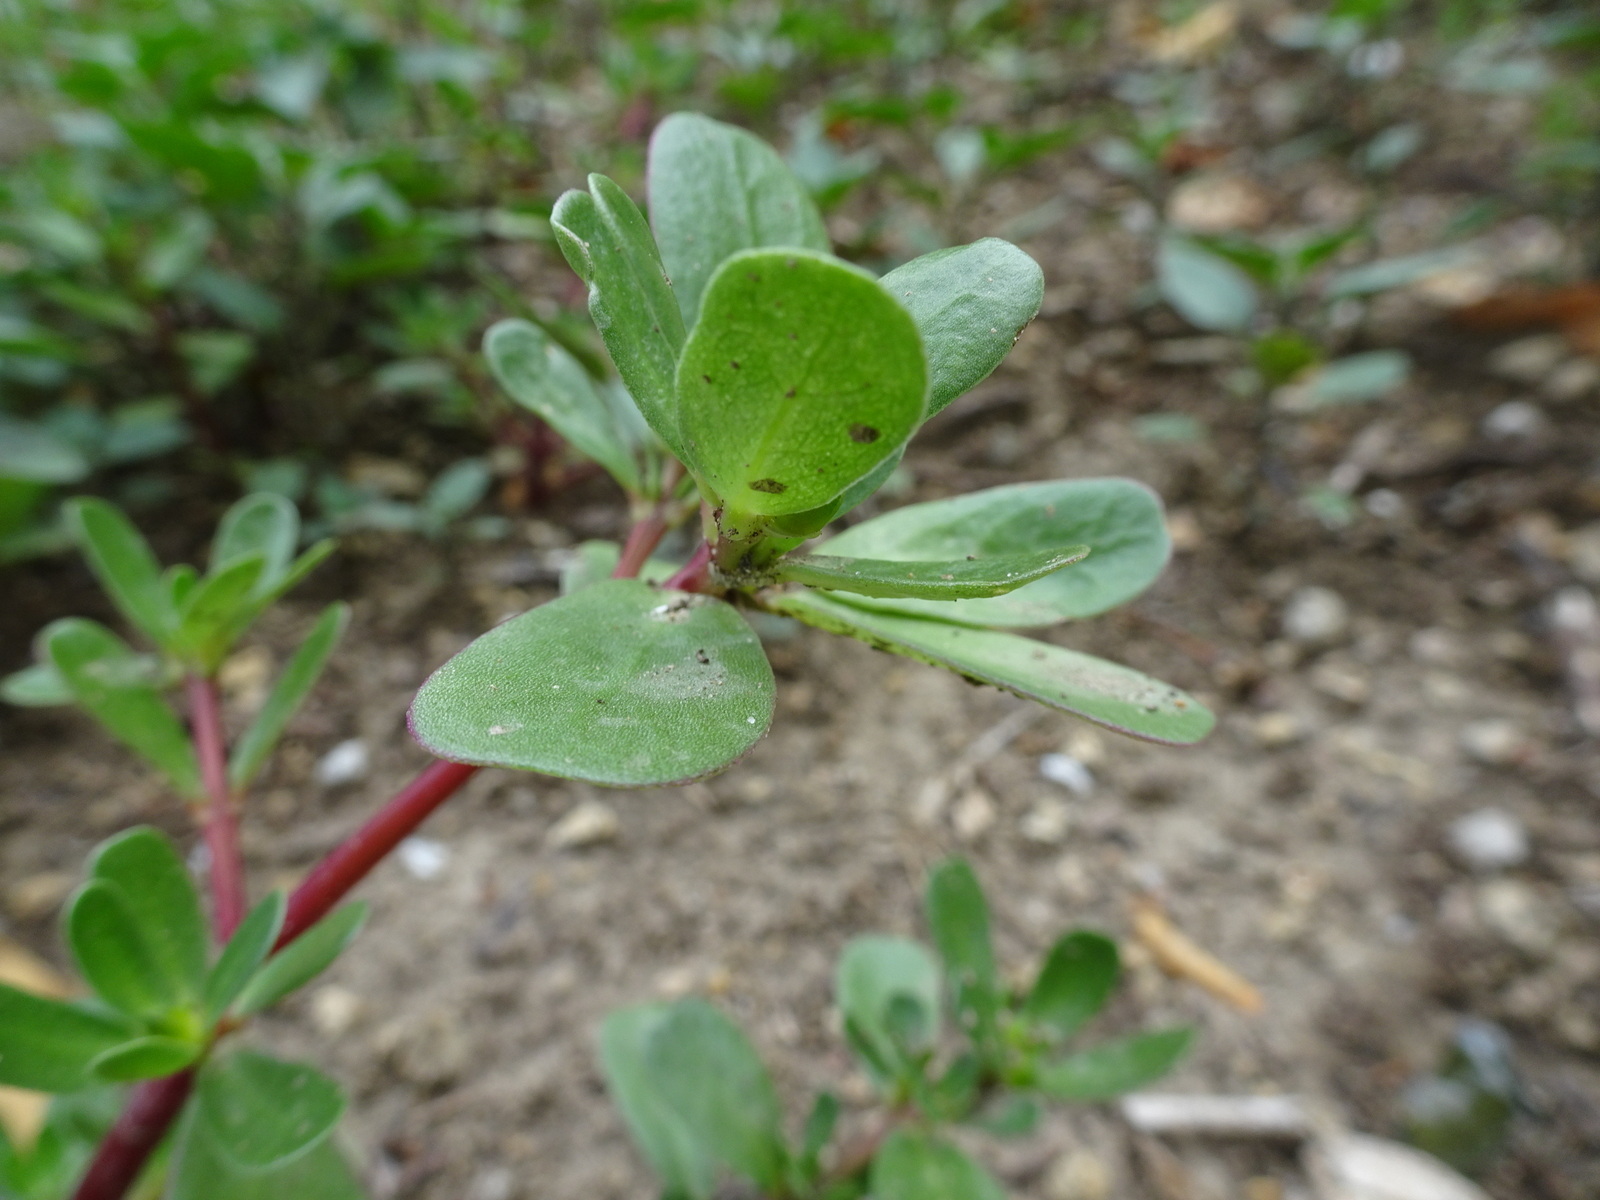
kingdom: Plantae
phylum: Tracheophyta
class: Magnoliopsida
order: Caryophyllales
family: Portulacaceae
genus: Portulaca
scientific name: Portulaca oleracea
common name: Common purslane
